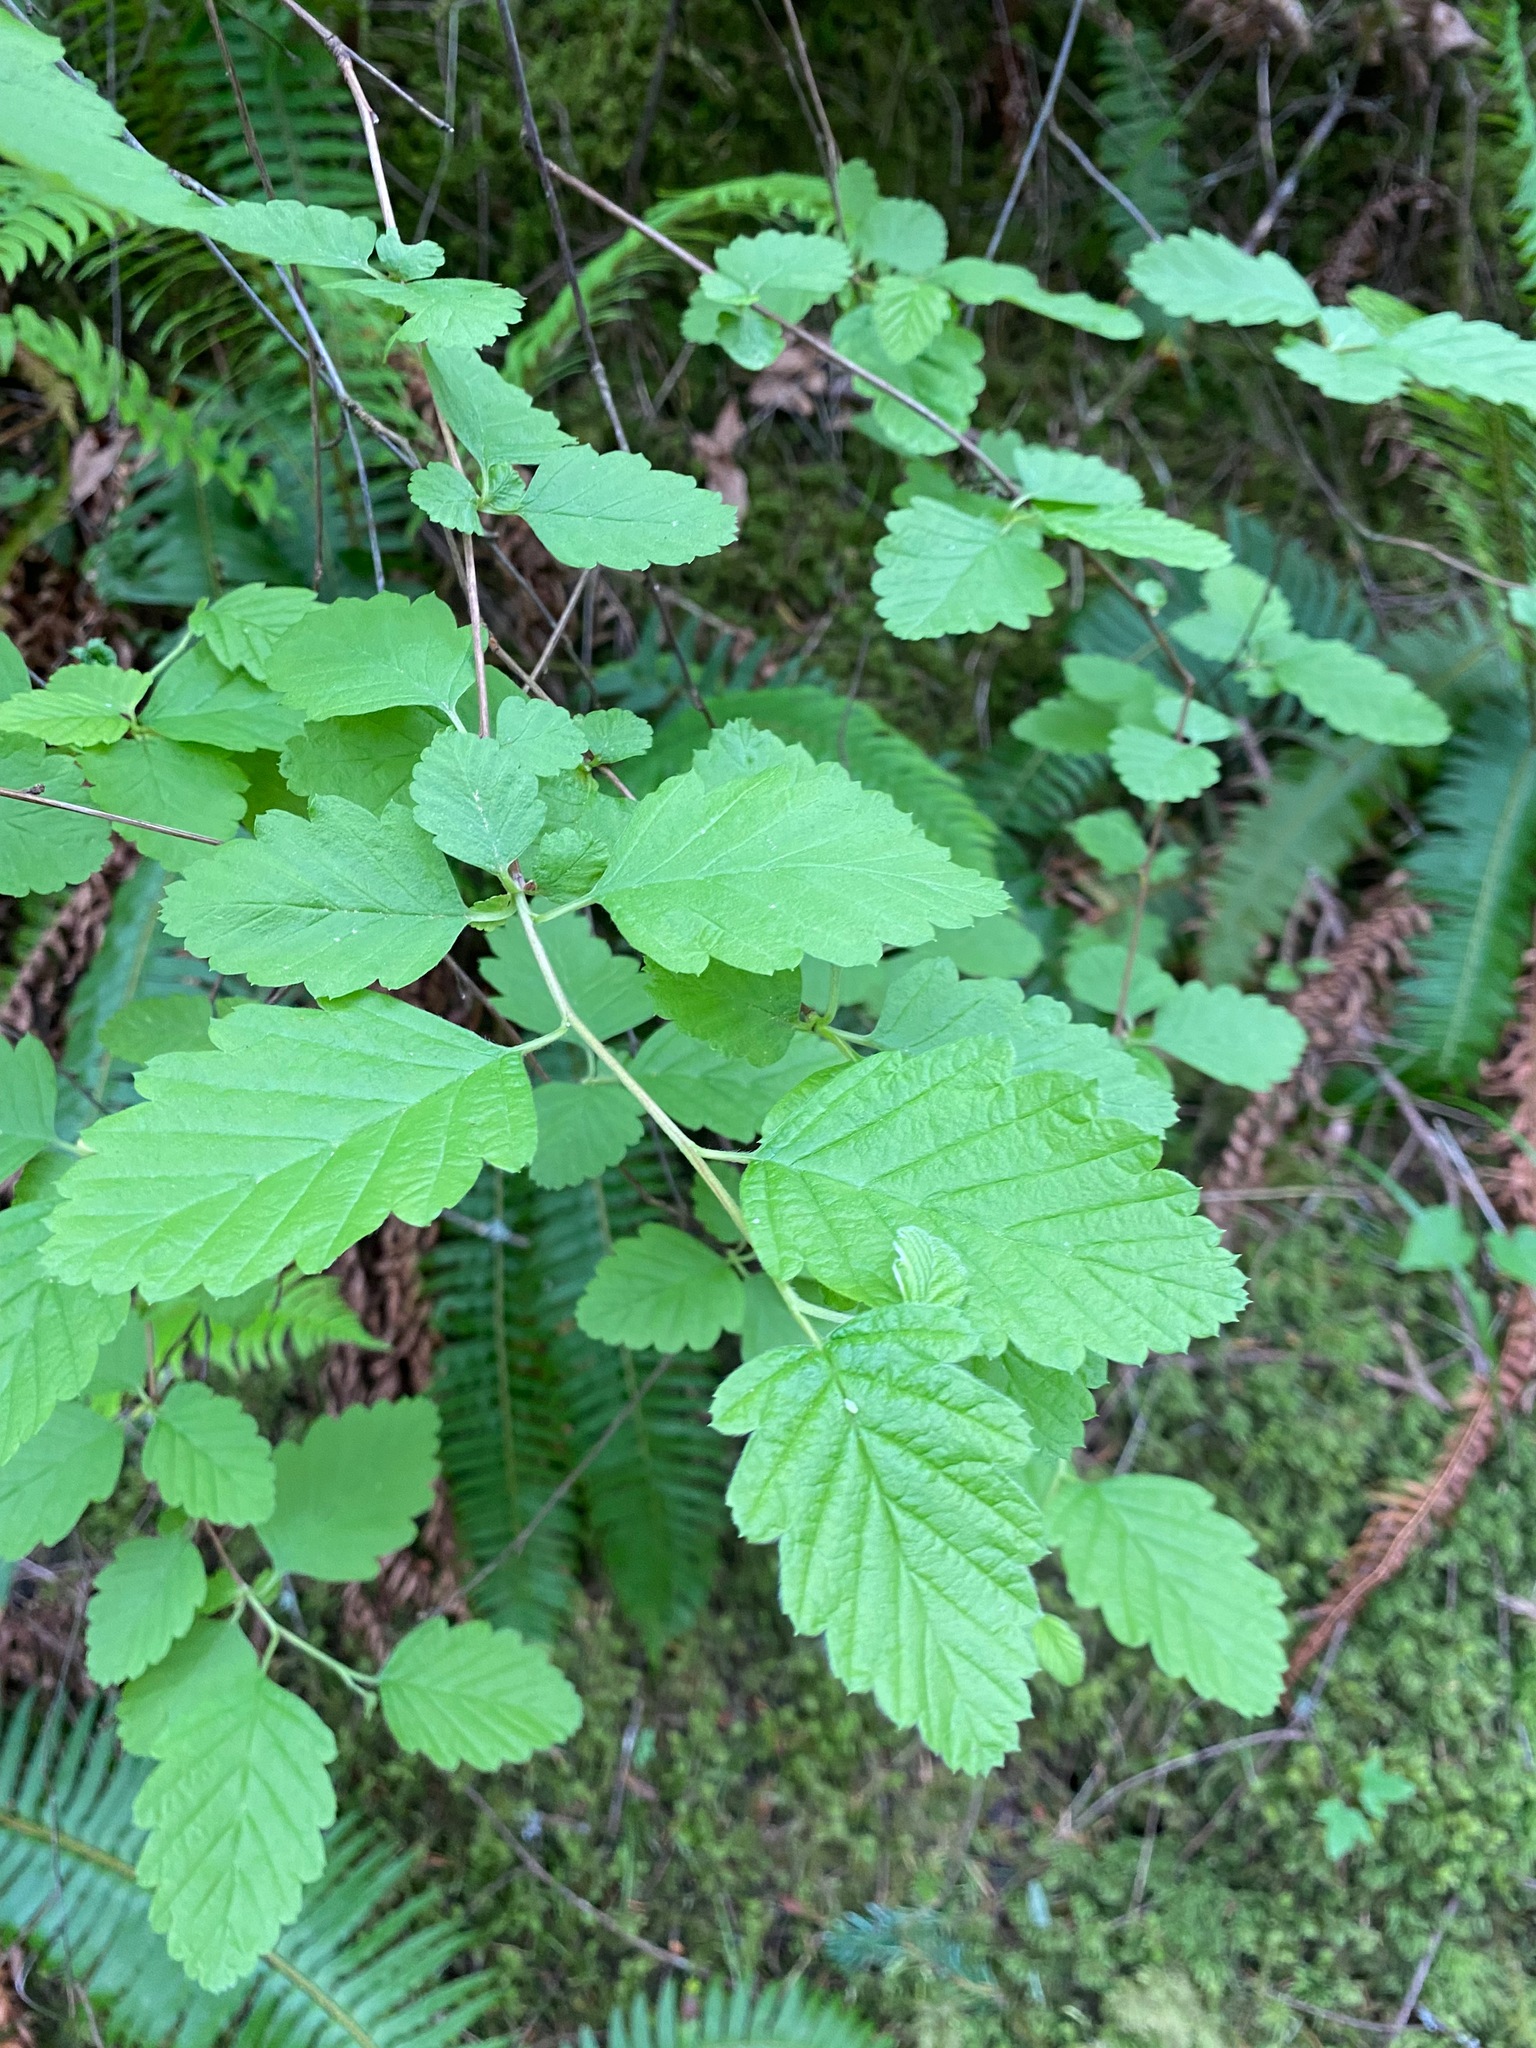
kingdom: Plantae
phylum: Tracheophyta
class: Magnoliopsida
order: Rosales
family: Rosaceae
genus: Holodiscus
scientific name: Holodiscus discolor
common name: Oceanspray
